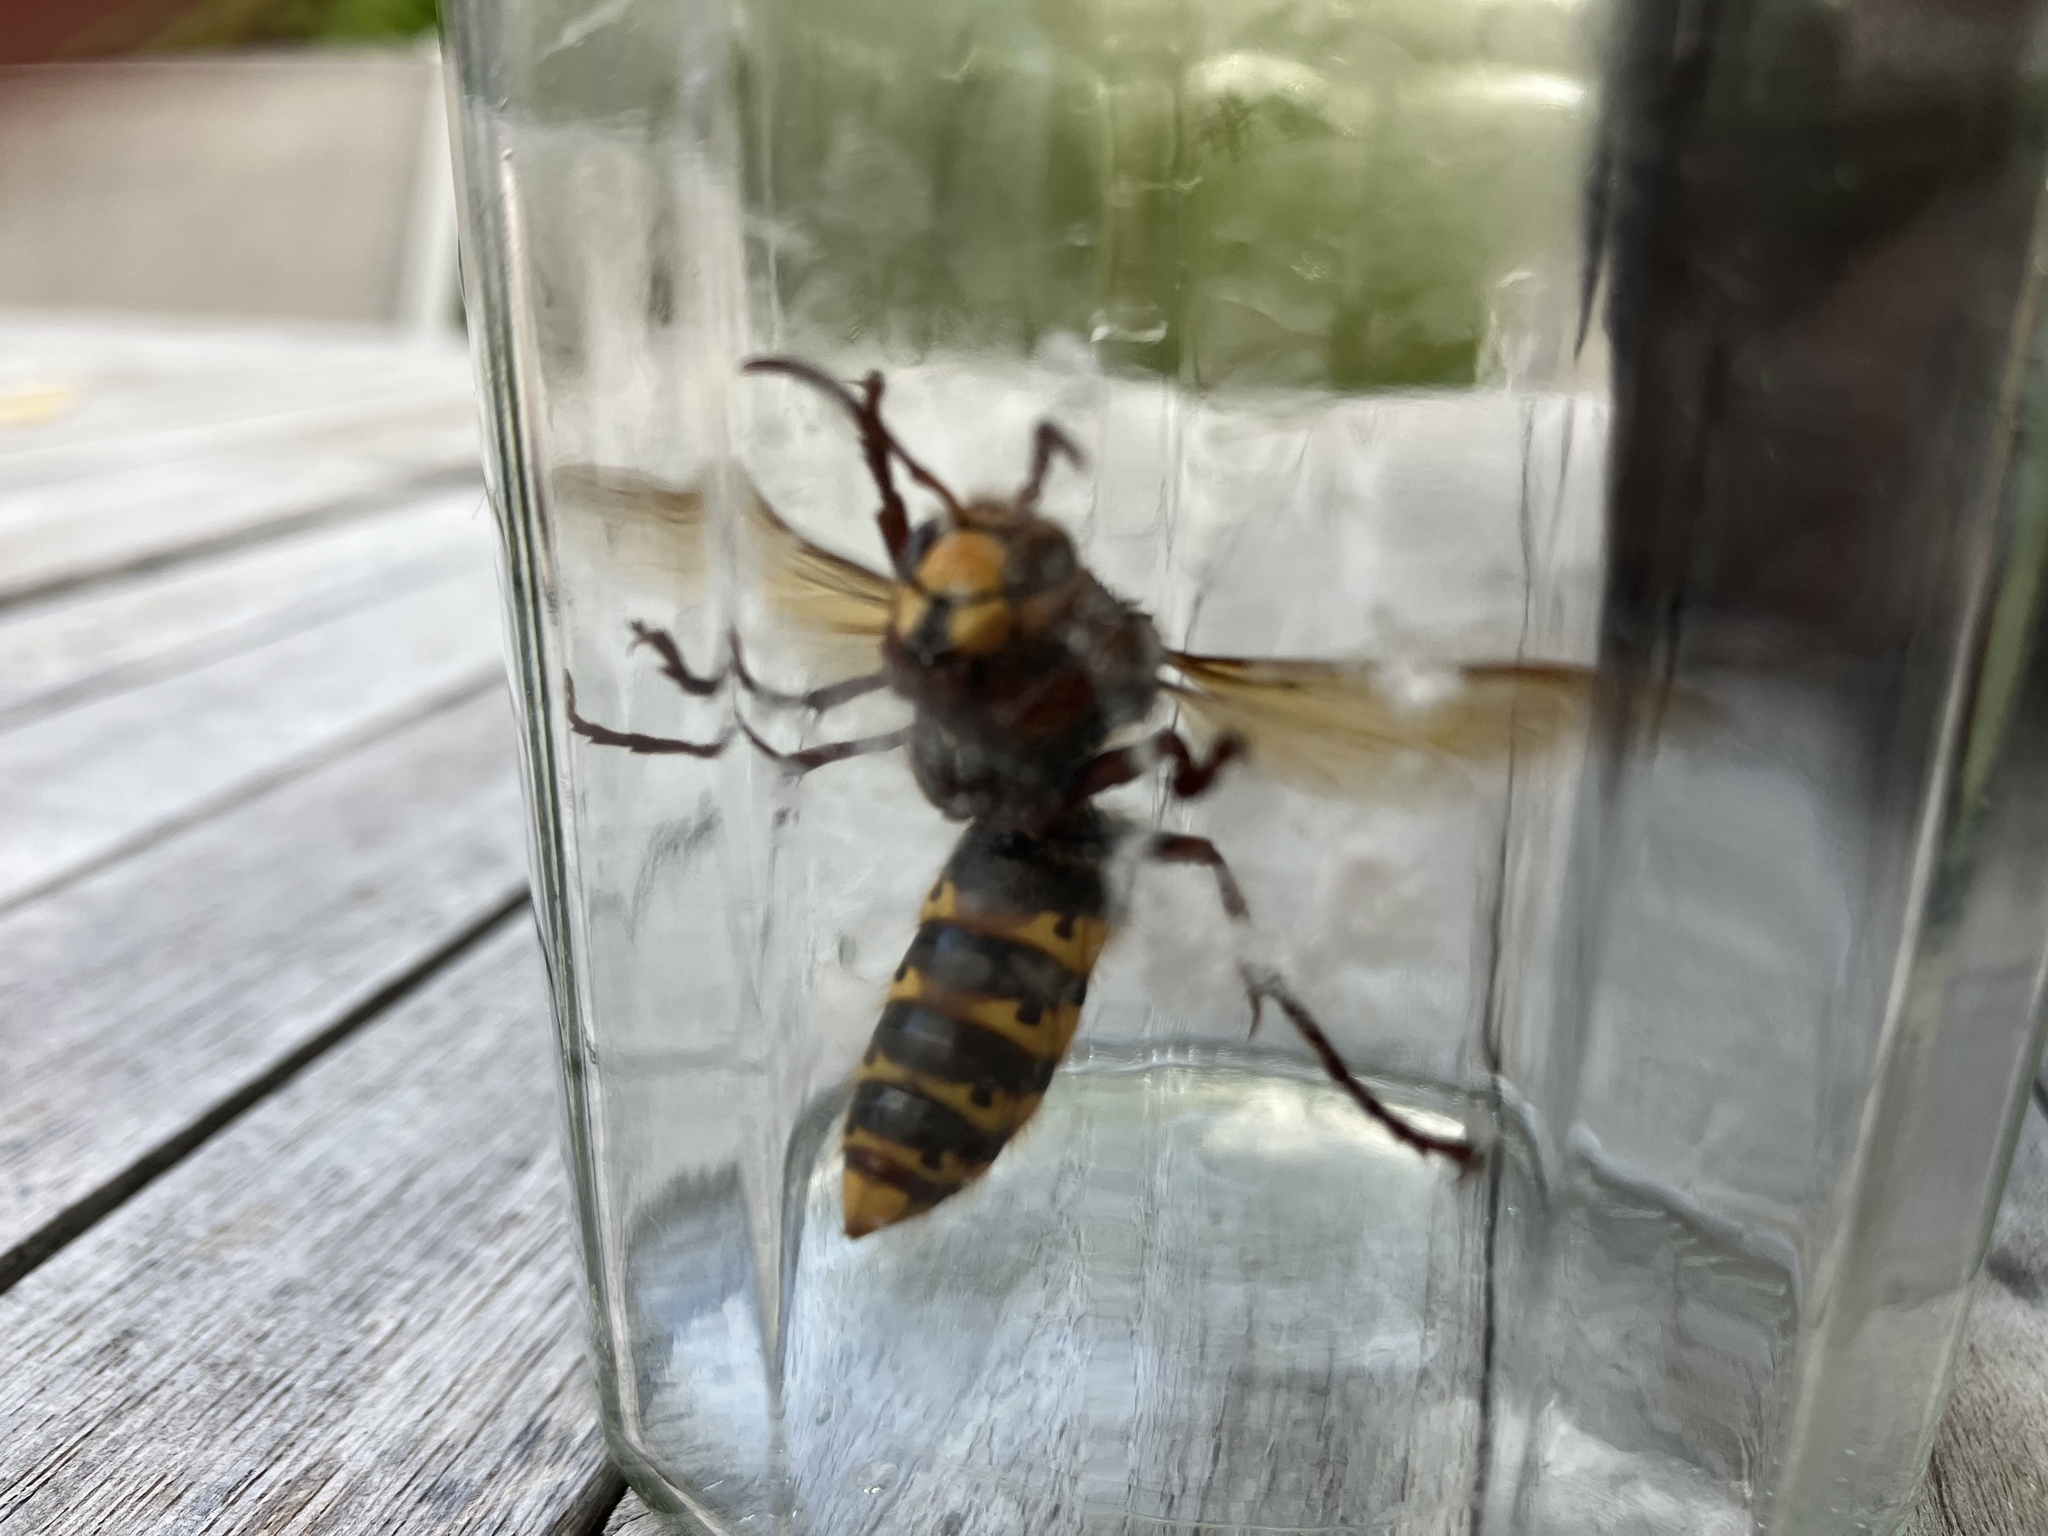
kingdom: Animalia
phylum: Arthropoda
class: Insecta
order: Hymenoptera
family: Vespidae
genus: Vespa
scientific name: Vespa crabro
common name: Hornet
